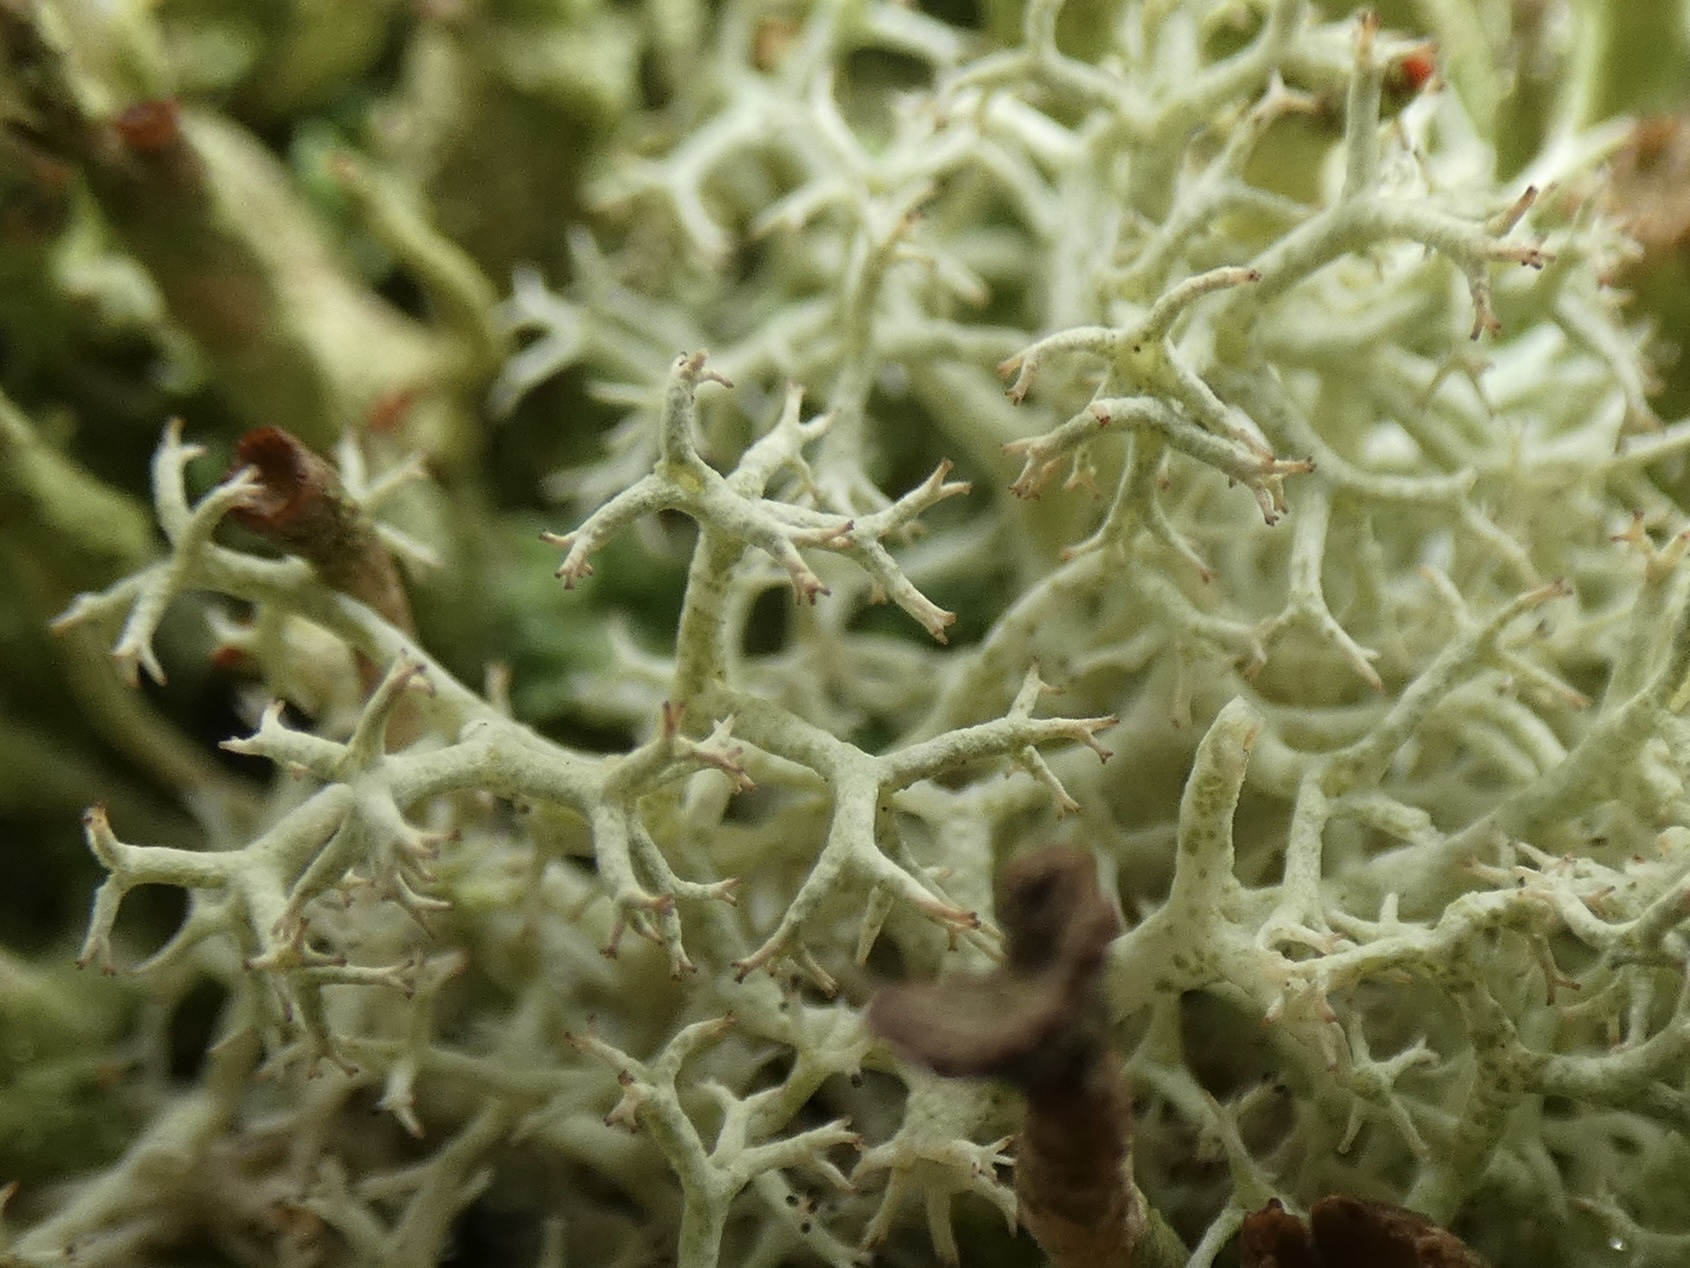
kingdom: Fungi
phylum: Ascomycota
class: Lecanoromycetes
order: Lecanorales
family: Cladoniaceae
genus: Cladonia
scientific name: Cladonia portentosa
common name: Reindeer lichen
